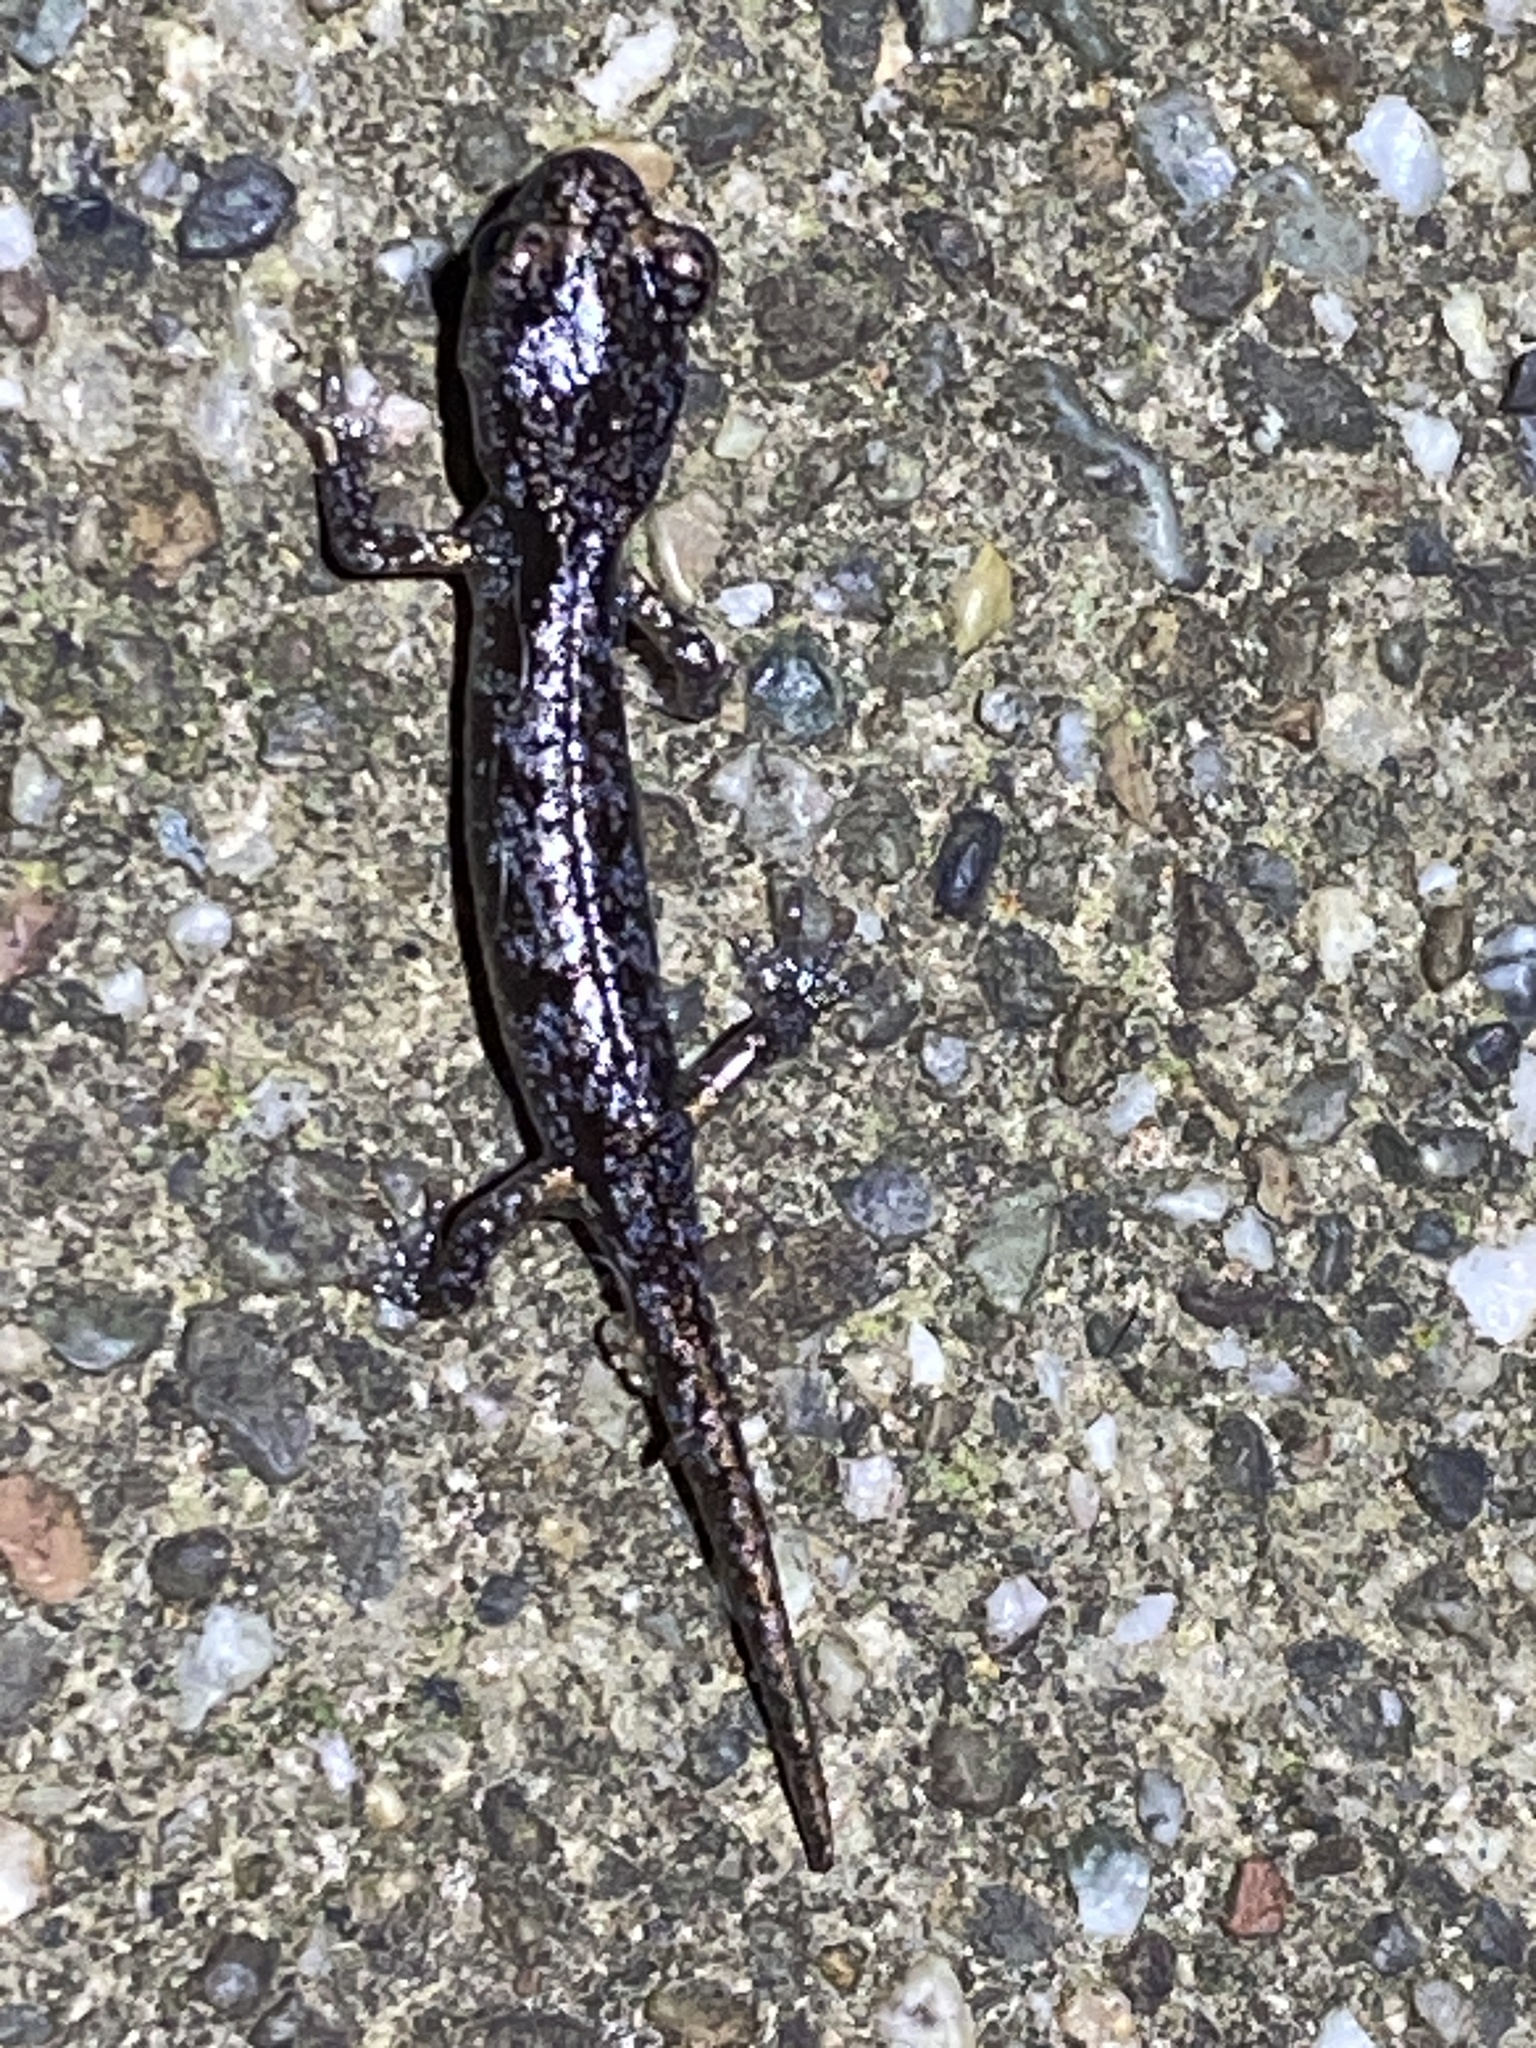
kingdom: Animalia
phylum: Chordata
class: Amphibia
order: Caudata
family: Plethodontidae
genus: Aneides
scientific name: Aneides lugubris
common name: Arboreal salamander
